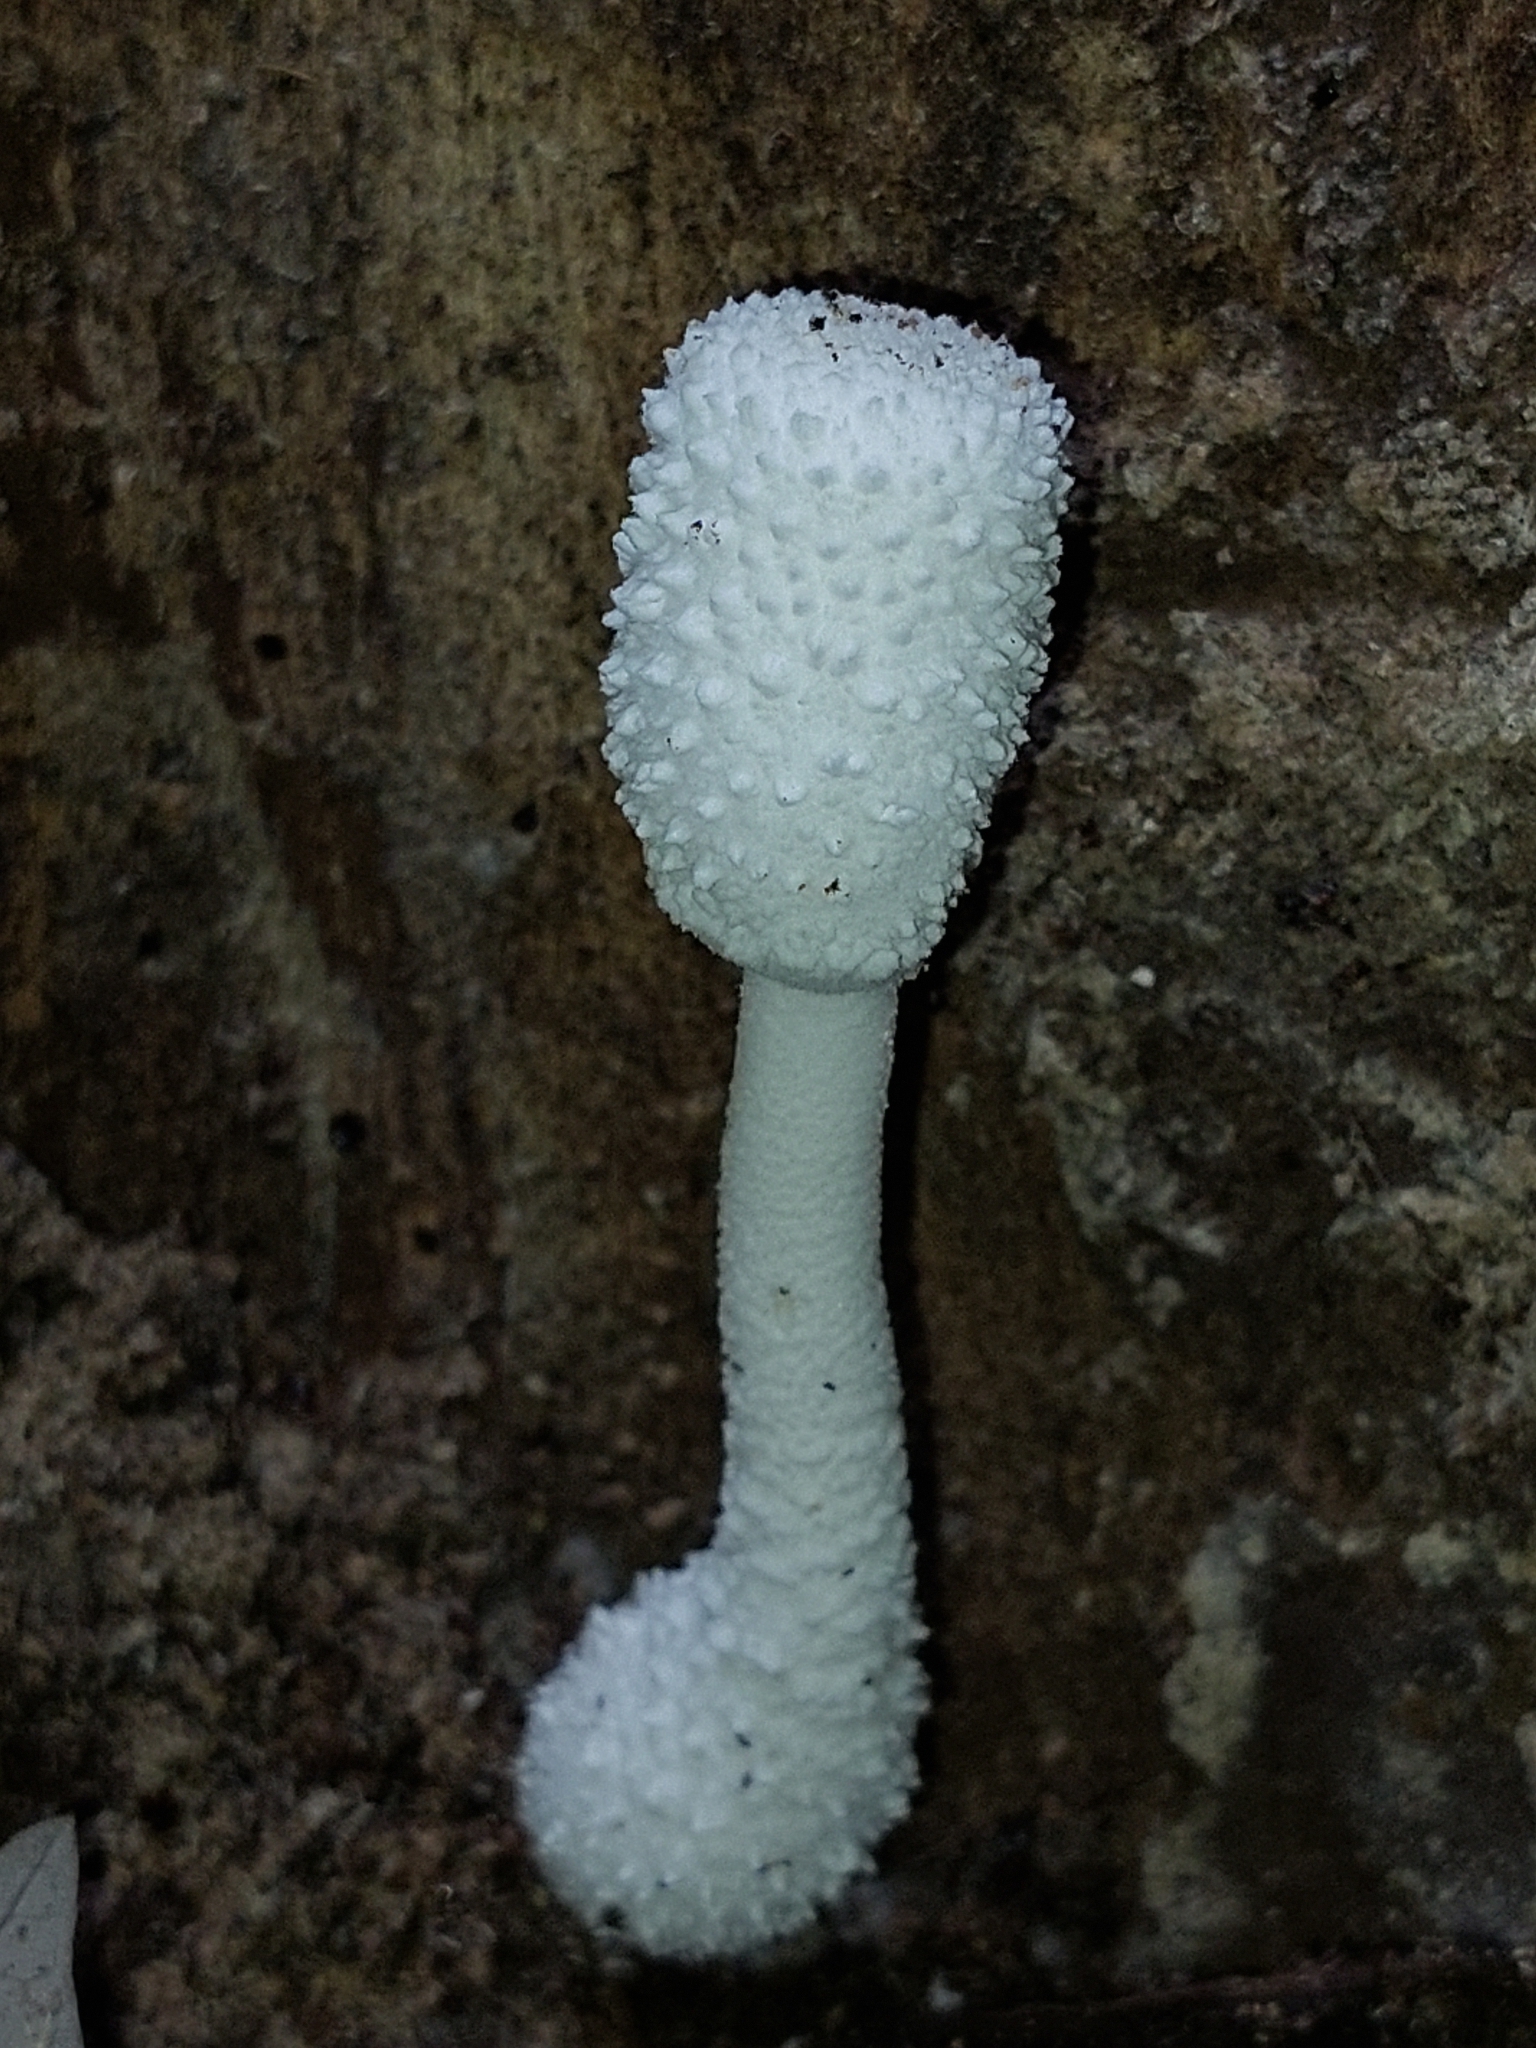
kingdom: Fungi
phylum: Basidiomycota
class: Agaricomycetes
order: Agaricales
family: Agaricaceae
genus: Leucocoprinus
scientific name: Leucocoprinus cretaceus
